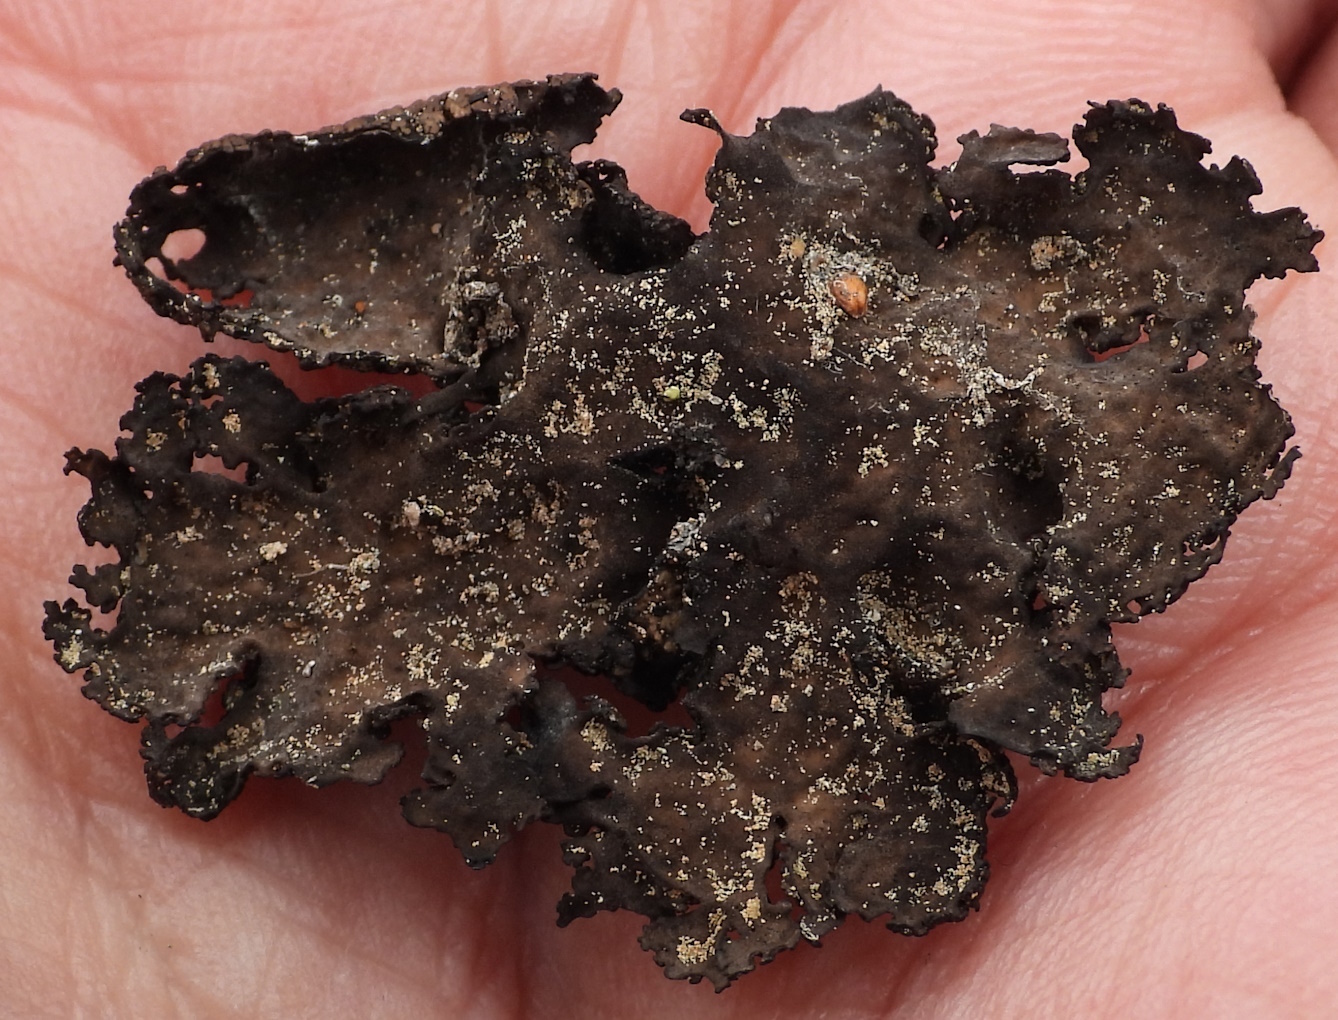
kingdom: Fungi
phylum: Ascomycota
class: Lecanoromycetes
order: Umbilicariales
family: Umbilicariaceae
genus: Umbilicaria
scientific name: Umbilicaria torrefacta
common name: Punctured rock tripe lichen
